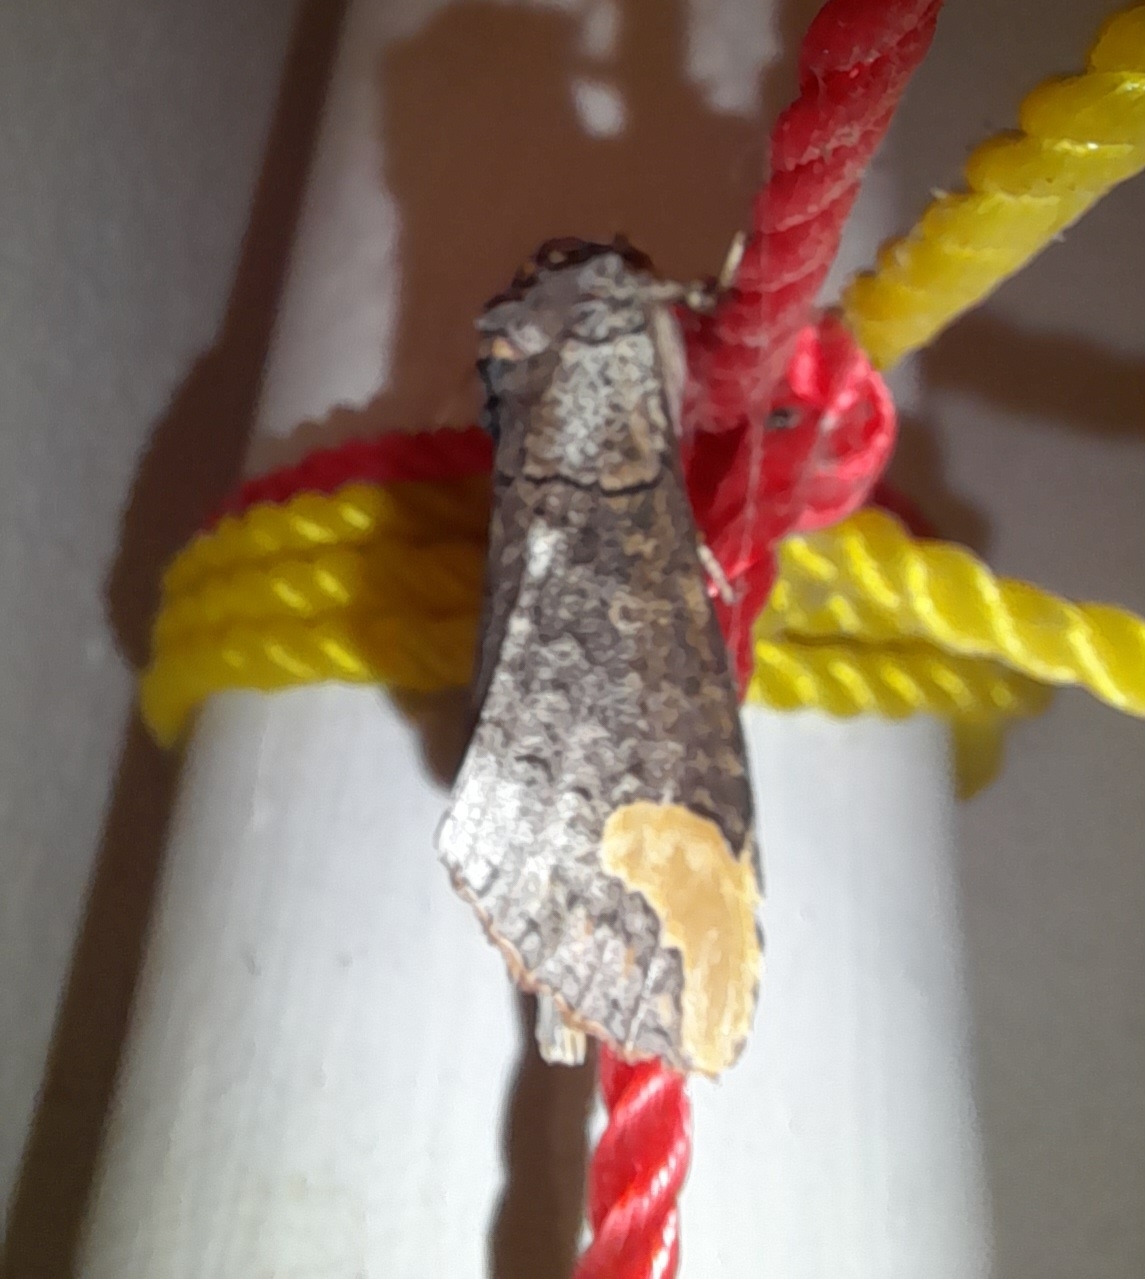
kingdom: Animalia
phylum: Arthropoda
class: Insecta
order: Lepidoptera
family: Notodontidae
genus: Phalera
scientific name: Phalera grotei
